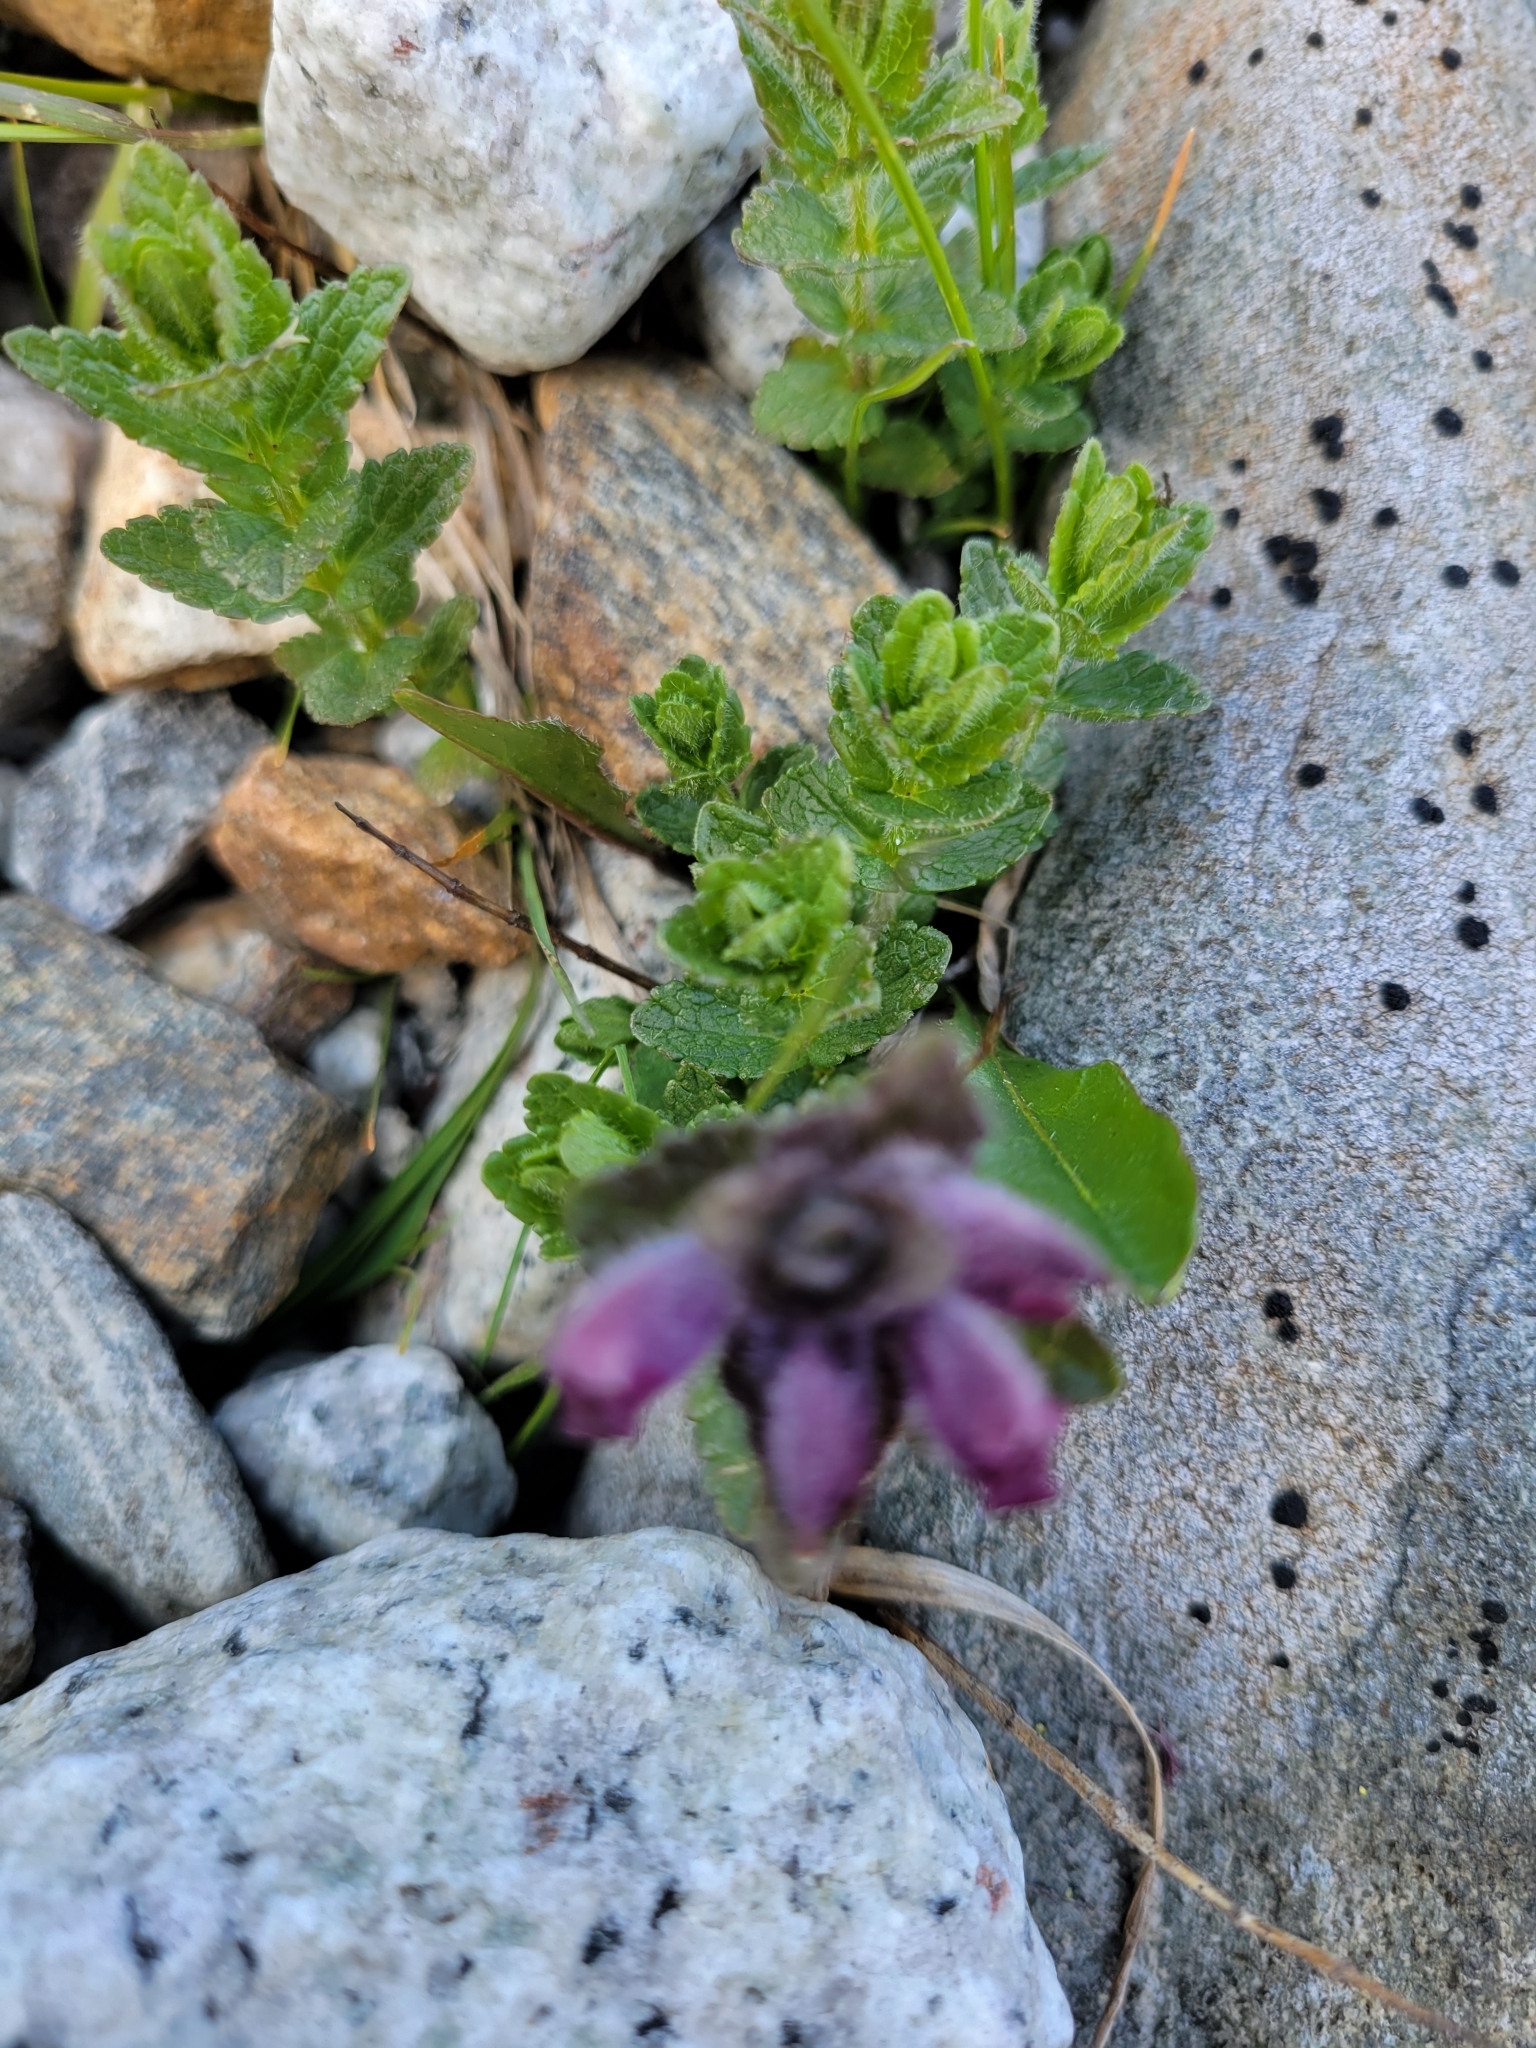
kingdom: Plantae
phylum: Tracheophyta
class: Magnoliopsida
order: Lamiales
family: Orobanchaceae
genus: Bartsia
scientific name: Bartsia alpina
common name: Alpine bartsia
